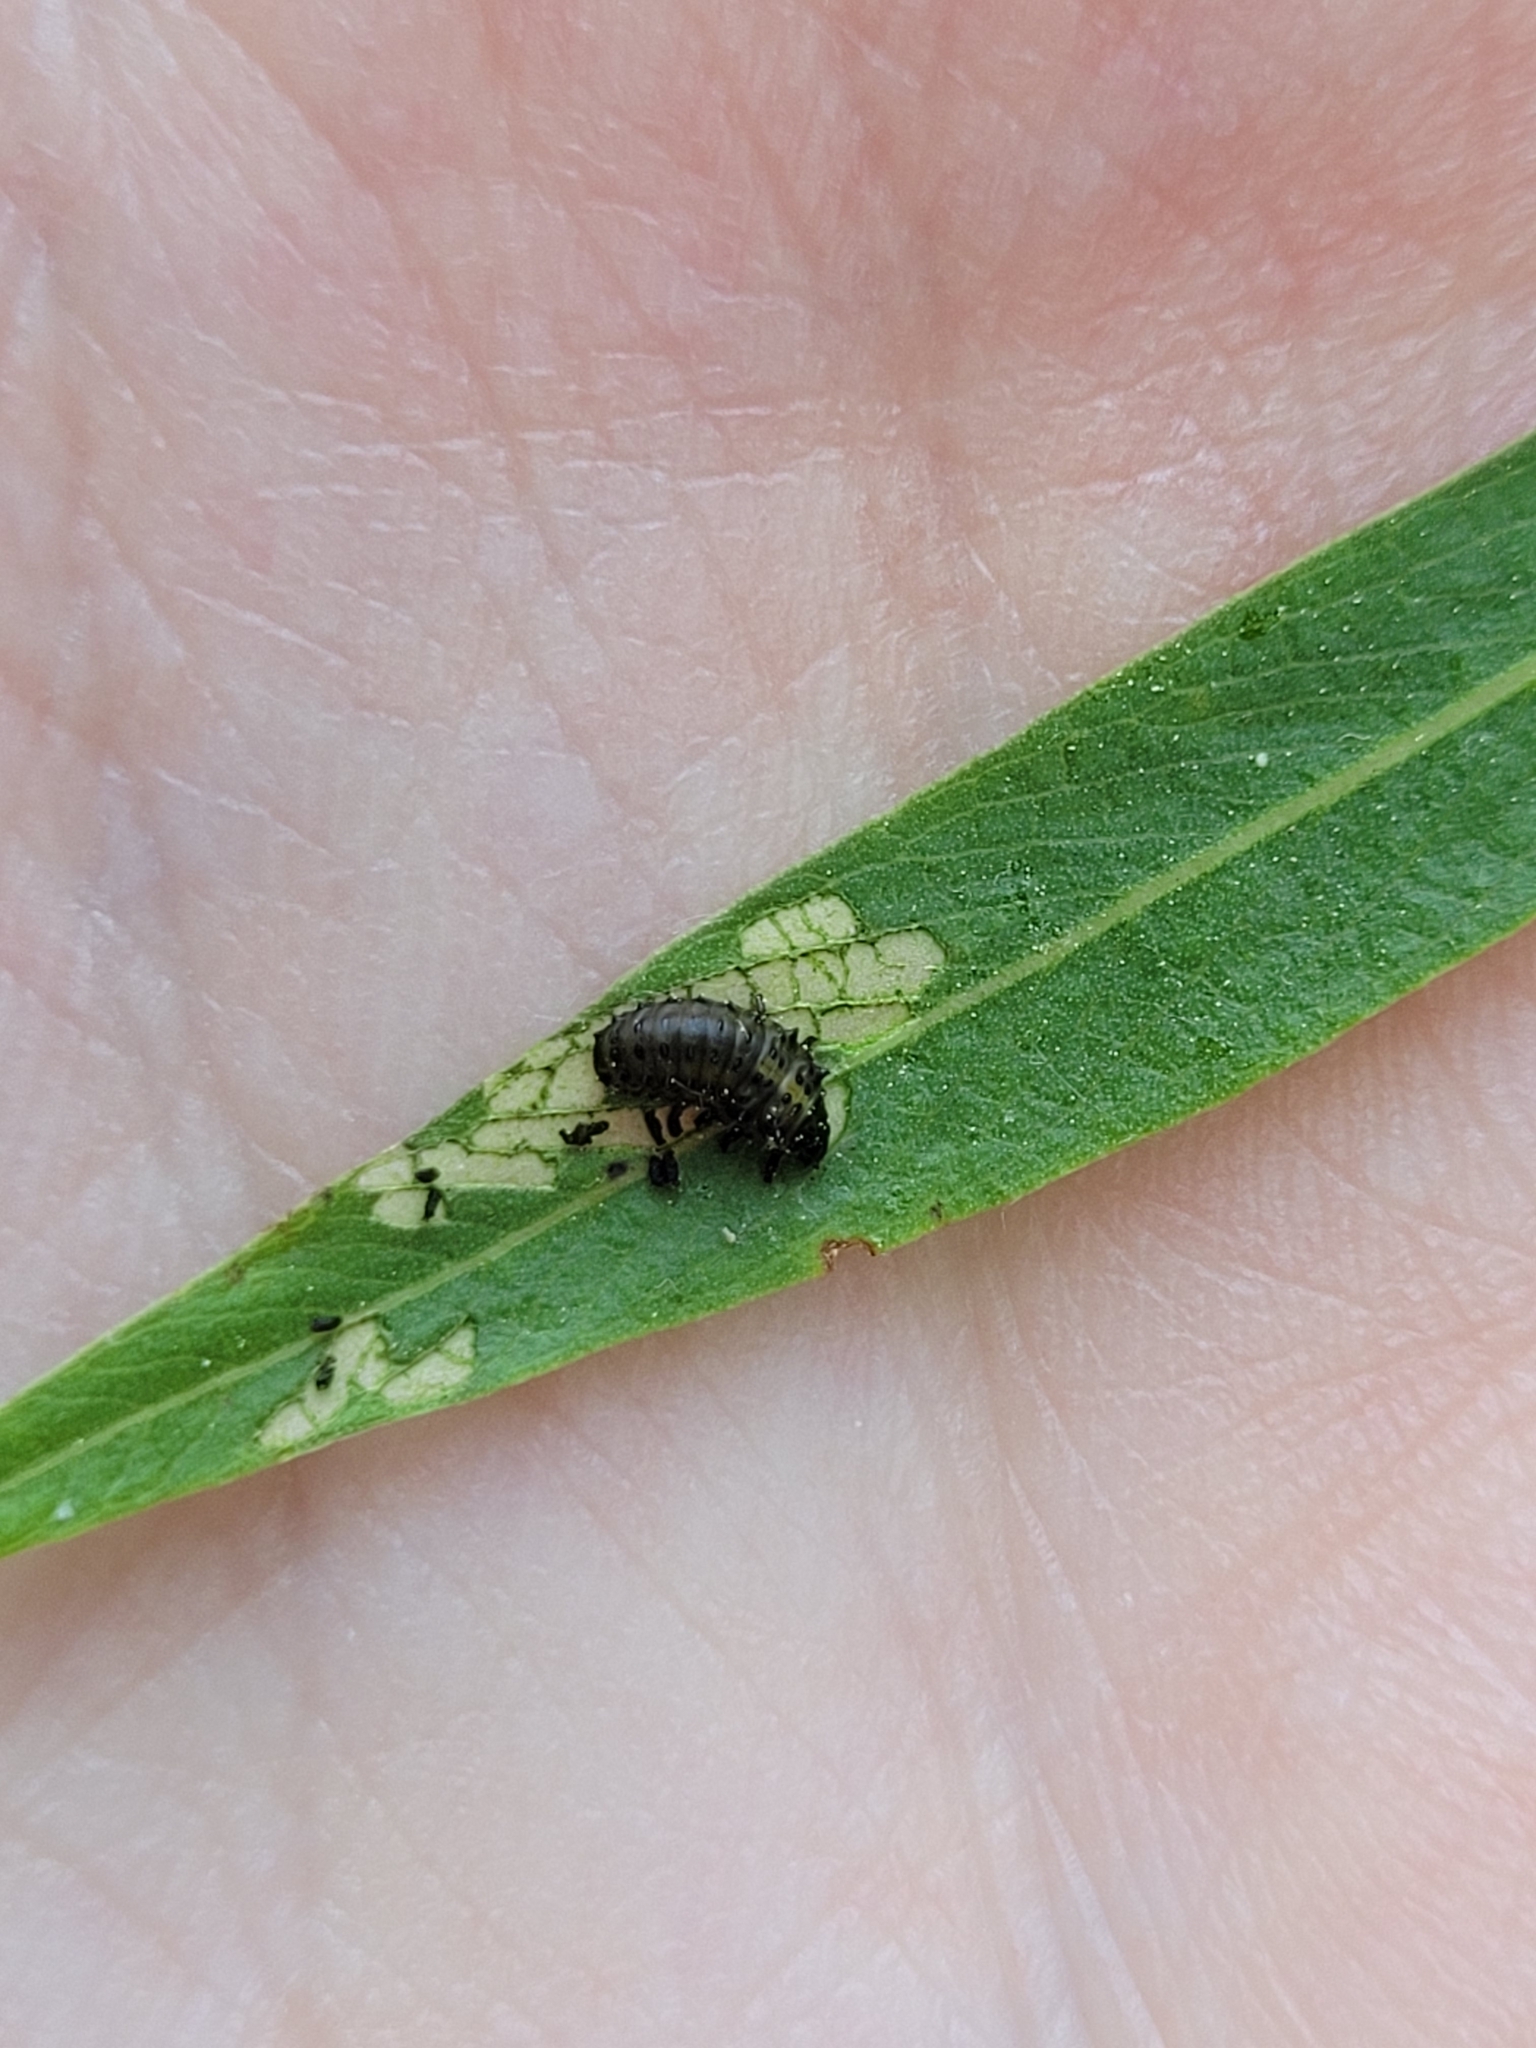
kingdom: Animalia
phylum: Arthropoda
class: Insecta
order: Coleoptera
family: Chrysomelidae
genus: Plagiodera
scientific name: Plagiodera versicolora
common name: Imported willow leaf beetle
